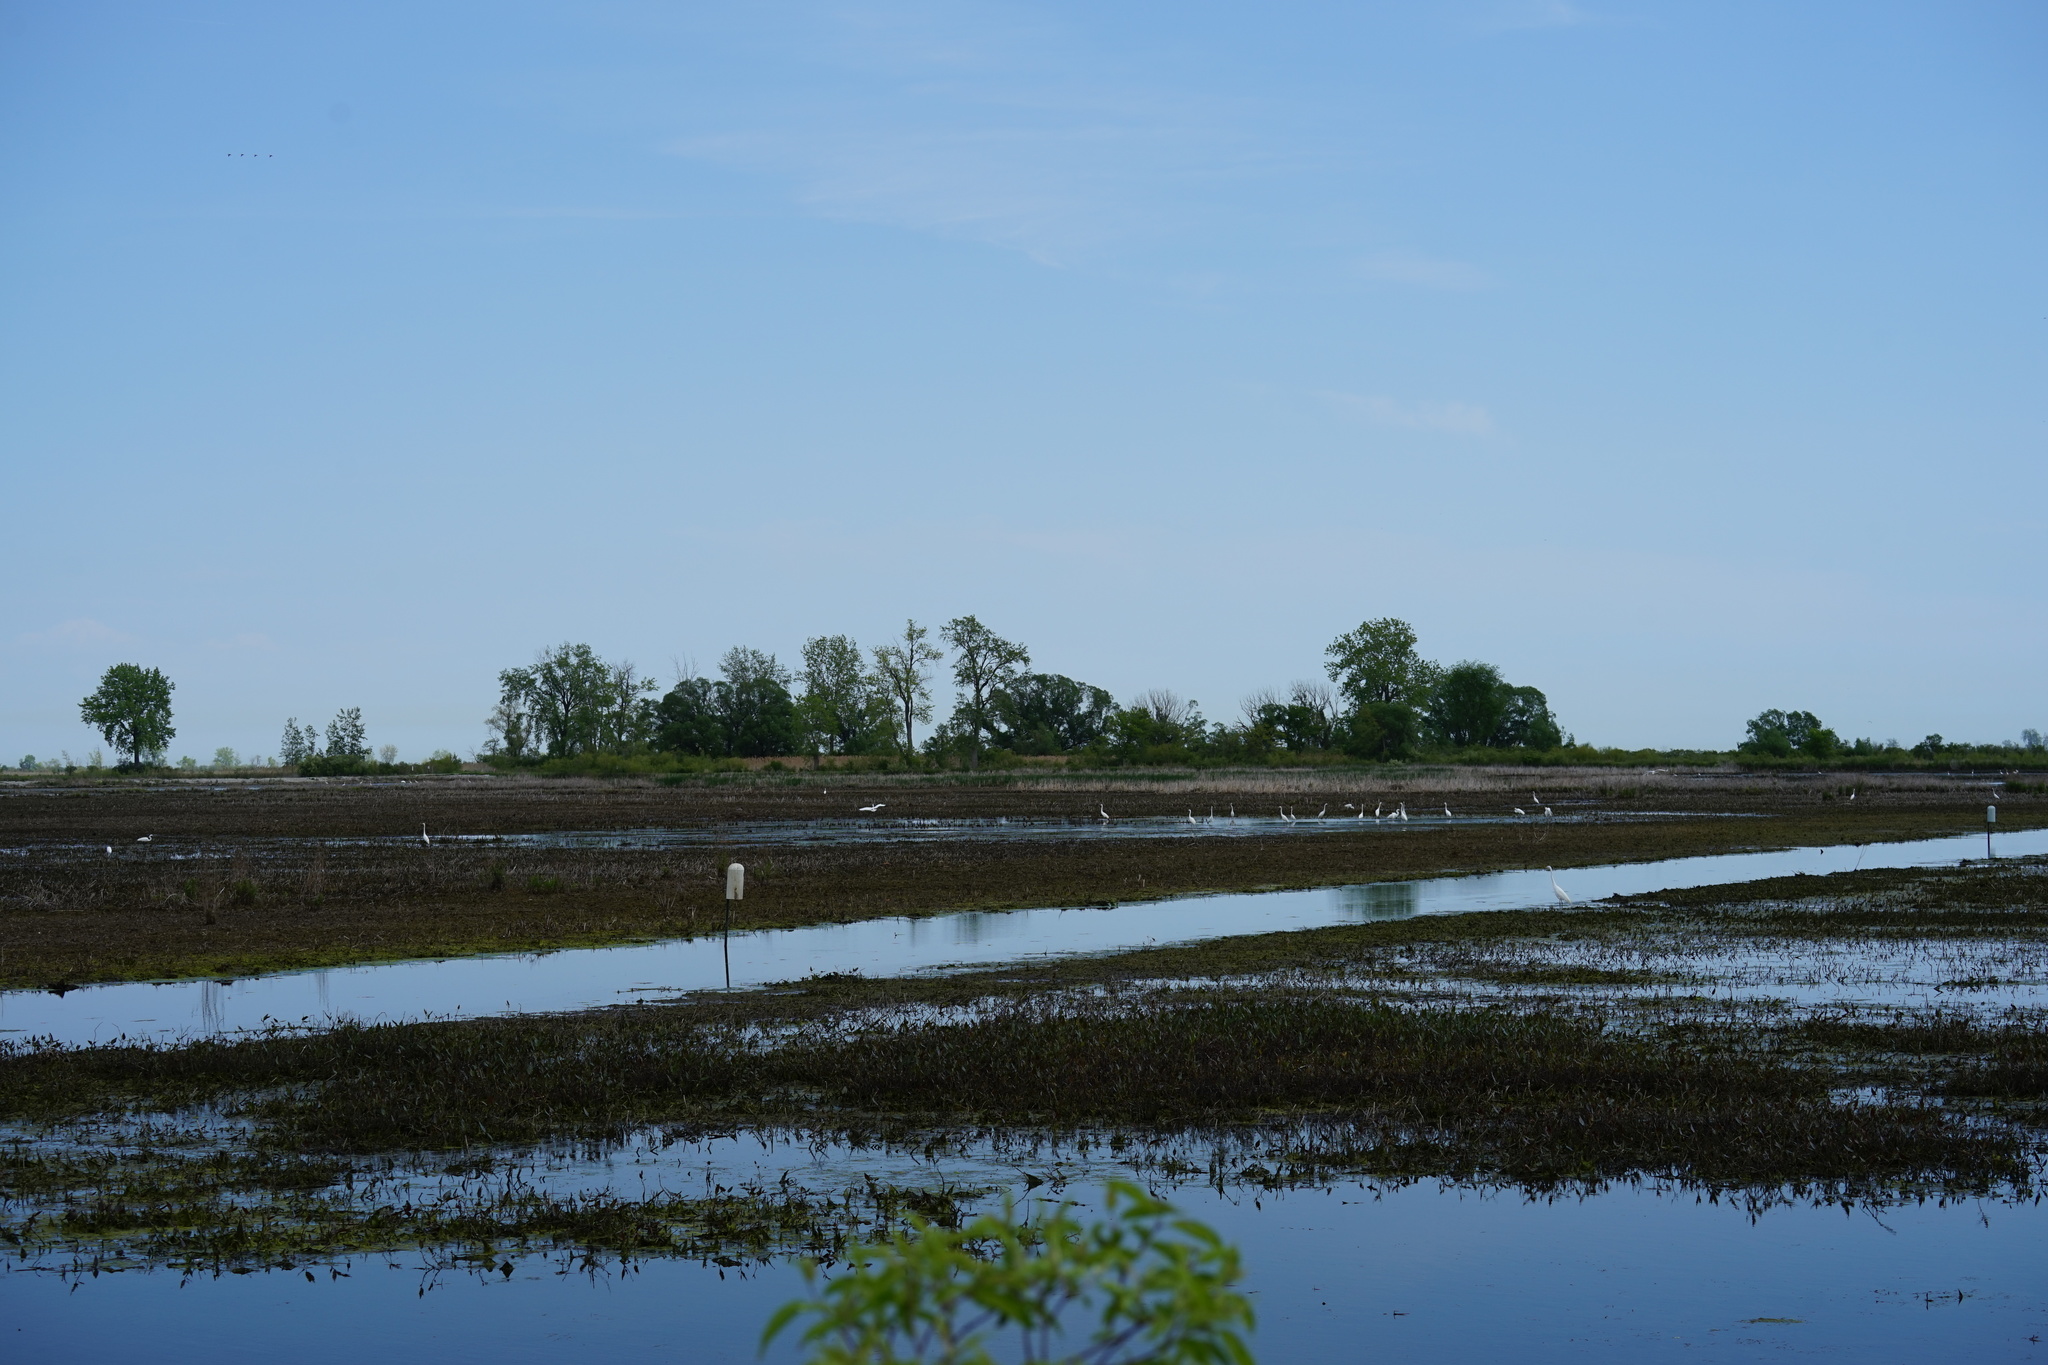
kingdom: Animalia
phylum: Chordata
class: Aves
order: Pelecaniformes
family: Ardeidae
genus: Ardea
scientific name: Ardea alba
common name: Great egret
